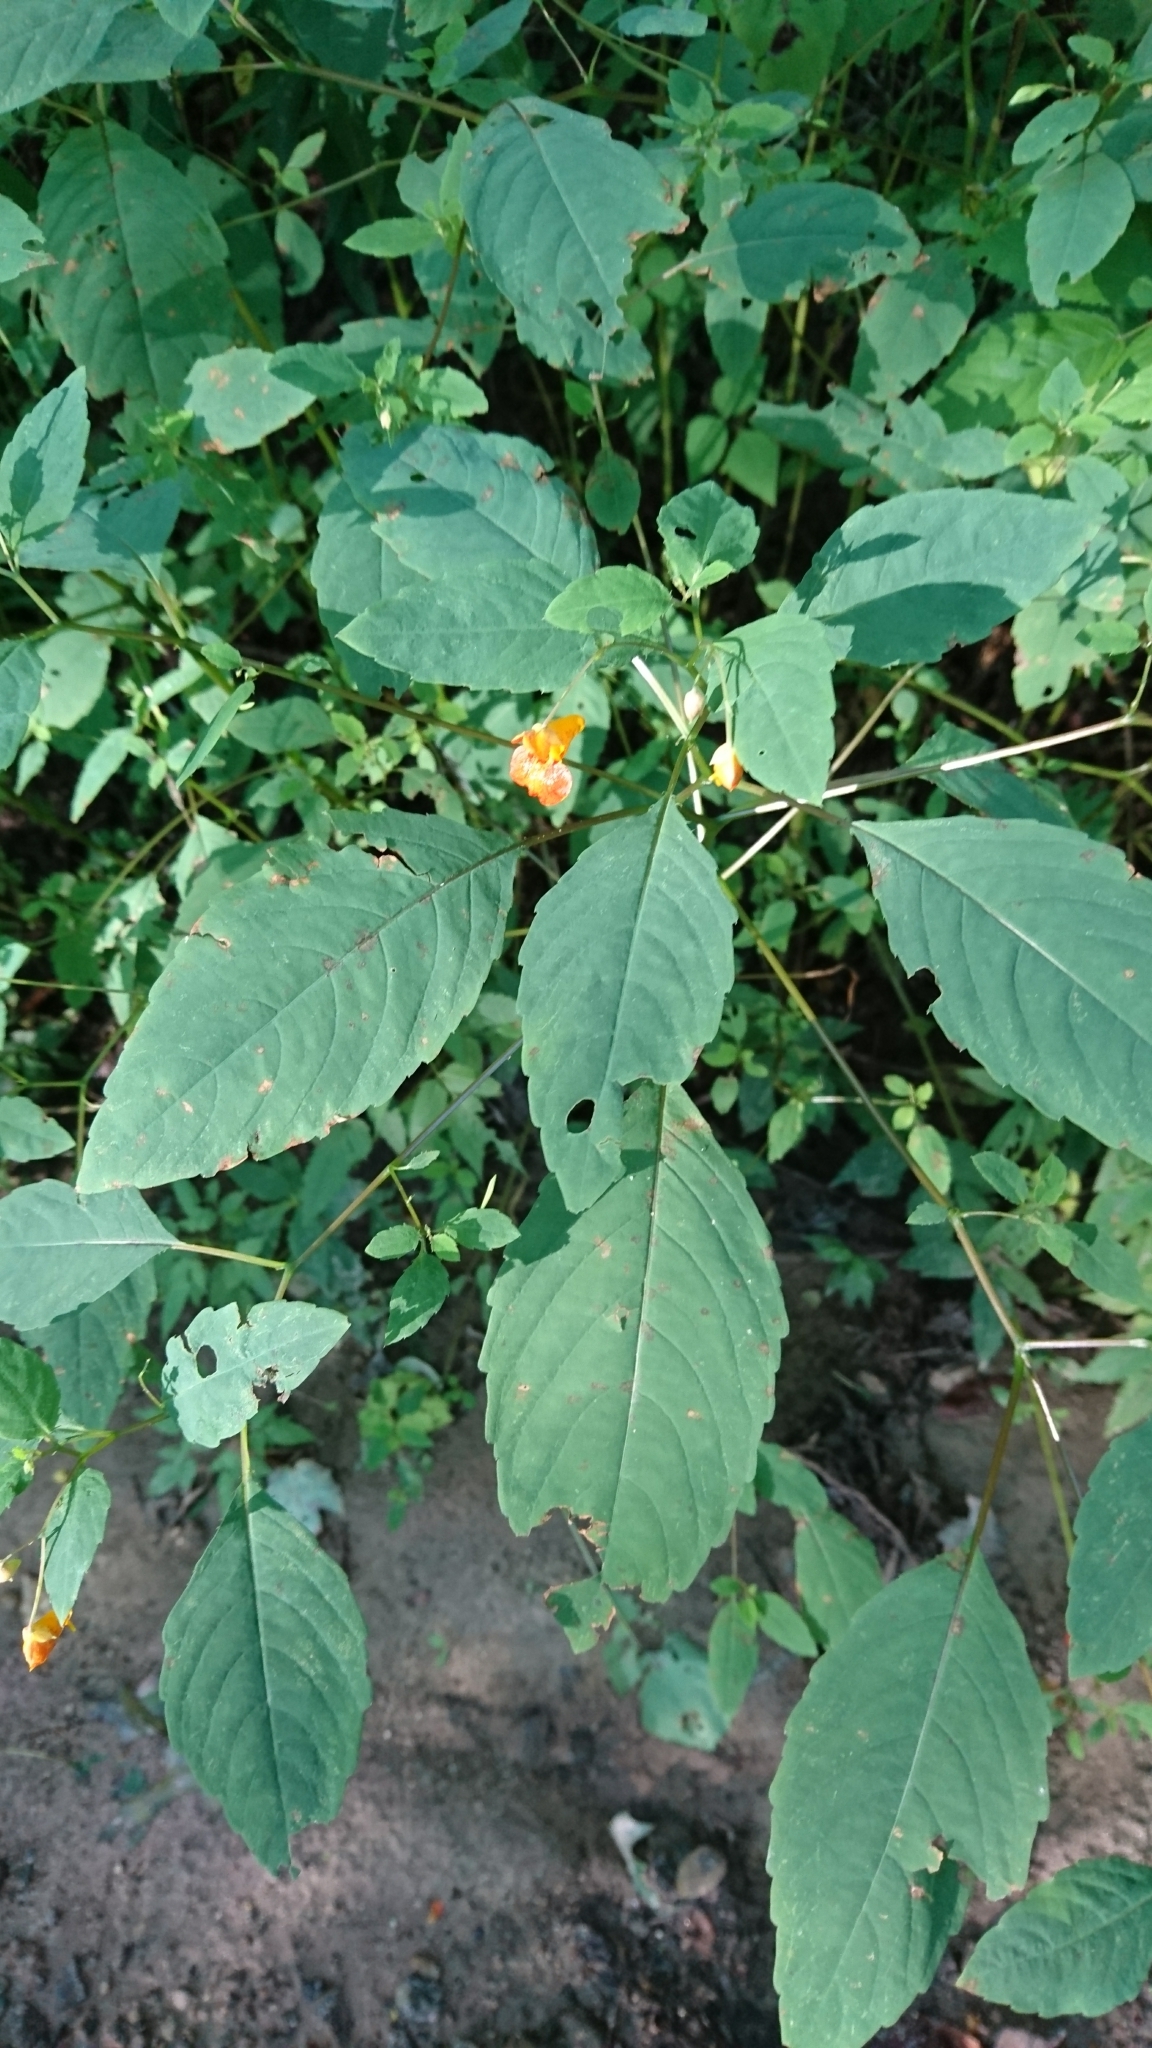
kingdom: Plantae
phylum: Tracheophyta
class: Magnoliopsida
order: Ericales
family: Balsaminaceae
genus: Impatiens
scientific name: Impatiens capensis
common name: Orange balsam
